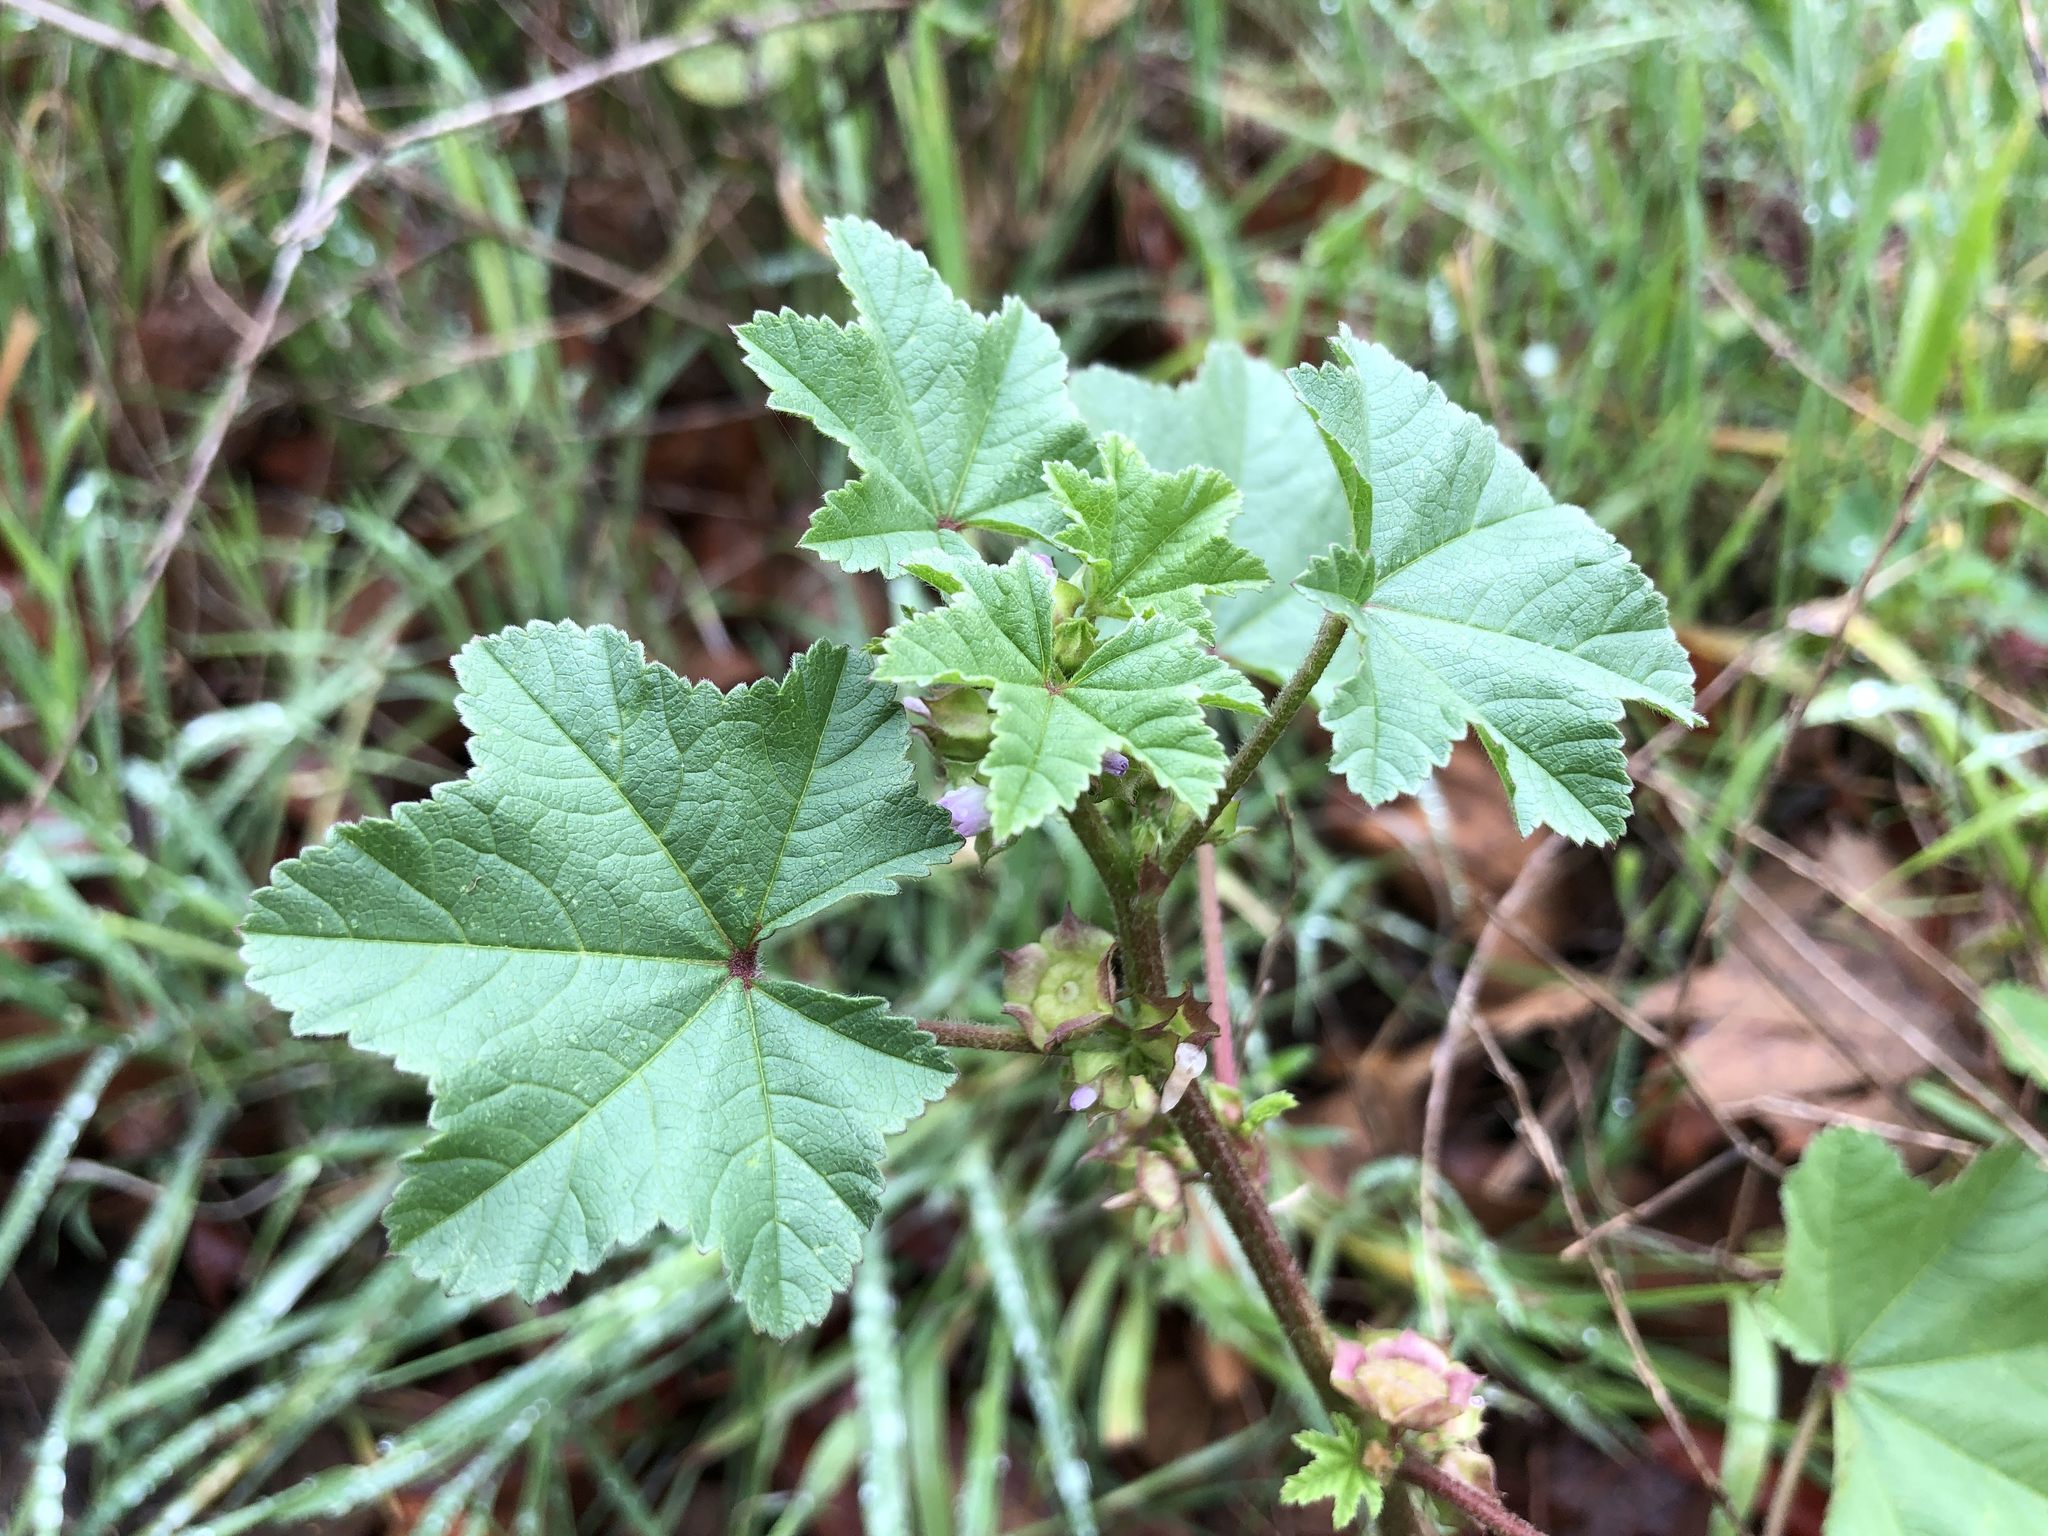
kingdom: Plantae
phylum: Tracheophyta
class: Magnoliopsida
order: Malvales
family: Malvaceae
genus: Malva
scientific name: Malva parviflora
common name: Least mallow
